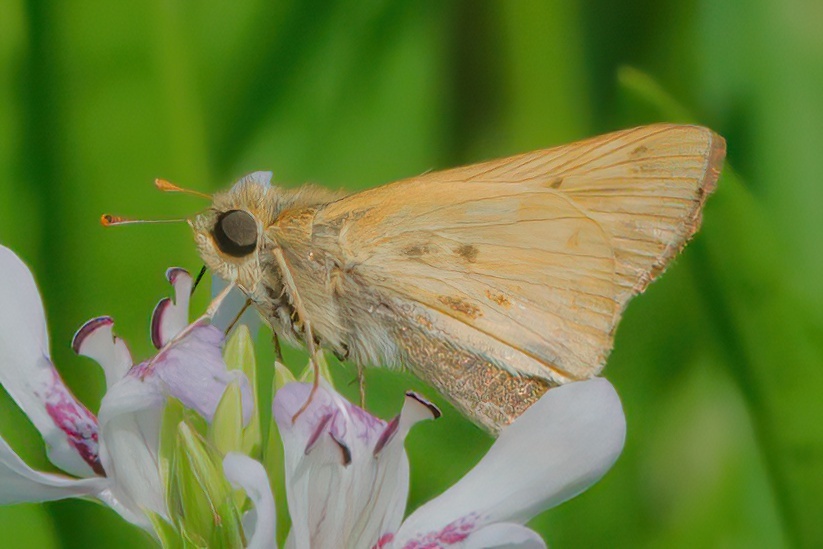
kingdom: Animalia
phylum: Arthropoda
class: Insecta
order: Lepidoptera
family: Hesperiidae
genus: Hylephila
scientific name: Hylephila phyleus
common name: Fiery skipper
